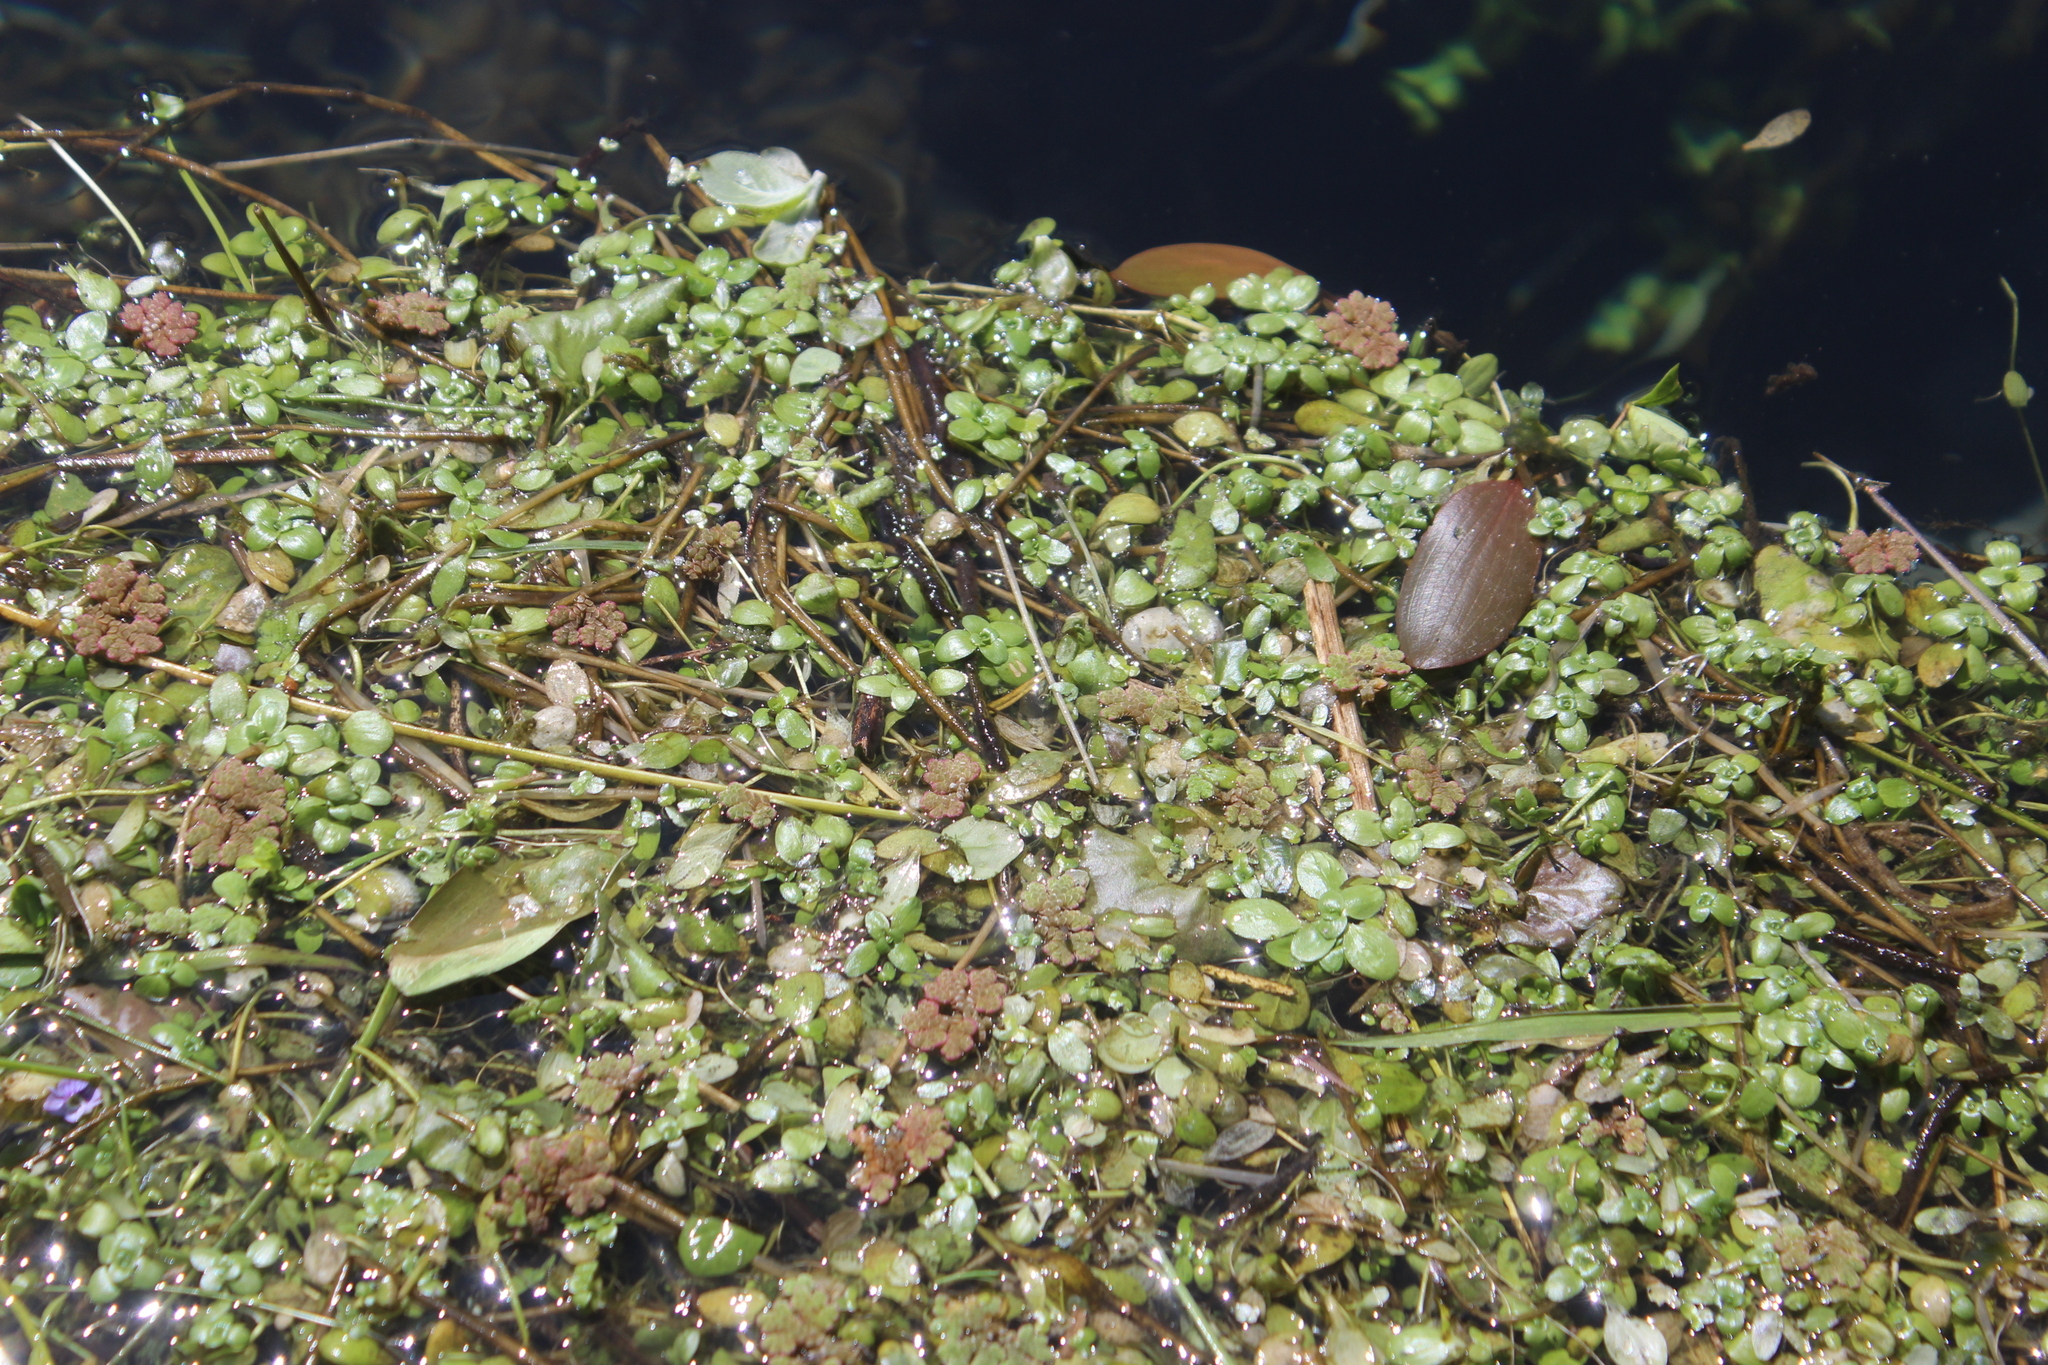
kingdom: Plantae
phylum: Tracheophyta
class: Polypodiopsida
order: Salviniales
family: Salviniaceae
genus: Azolla
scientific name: Azolla rubra
